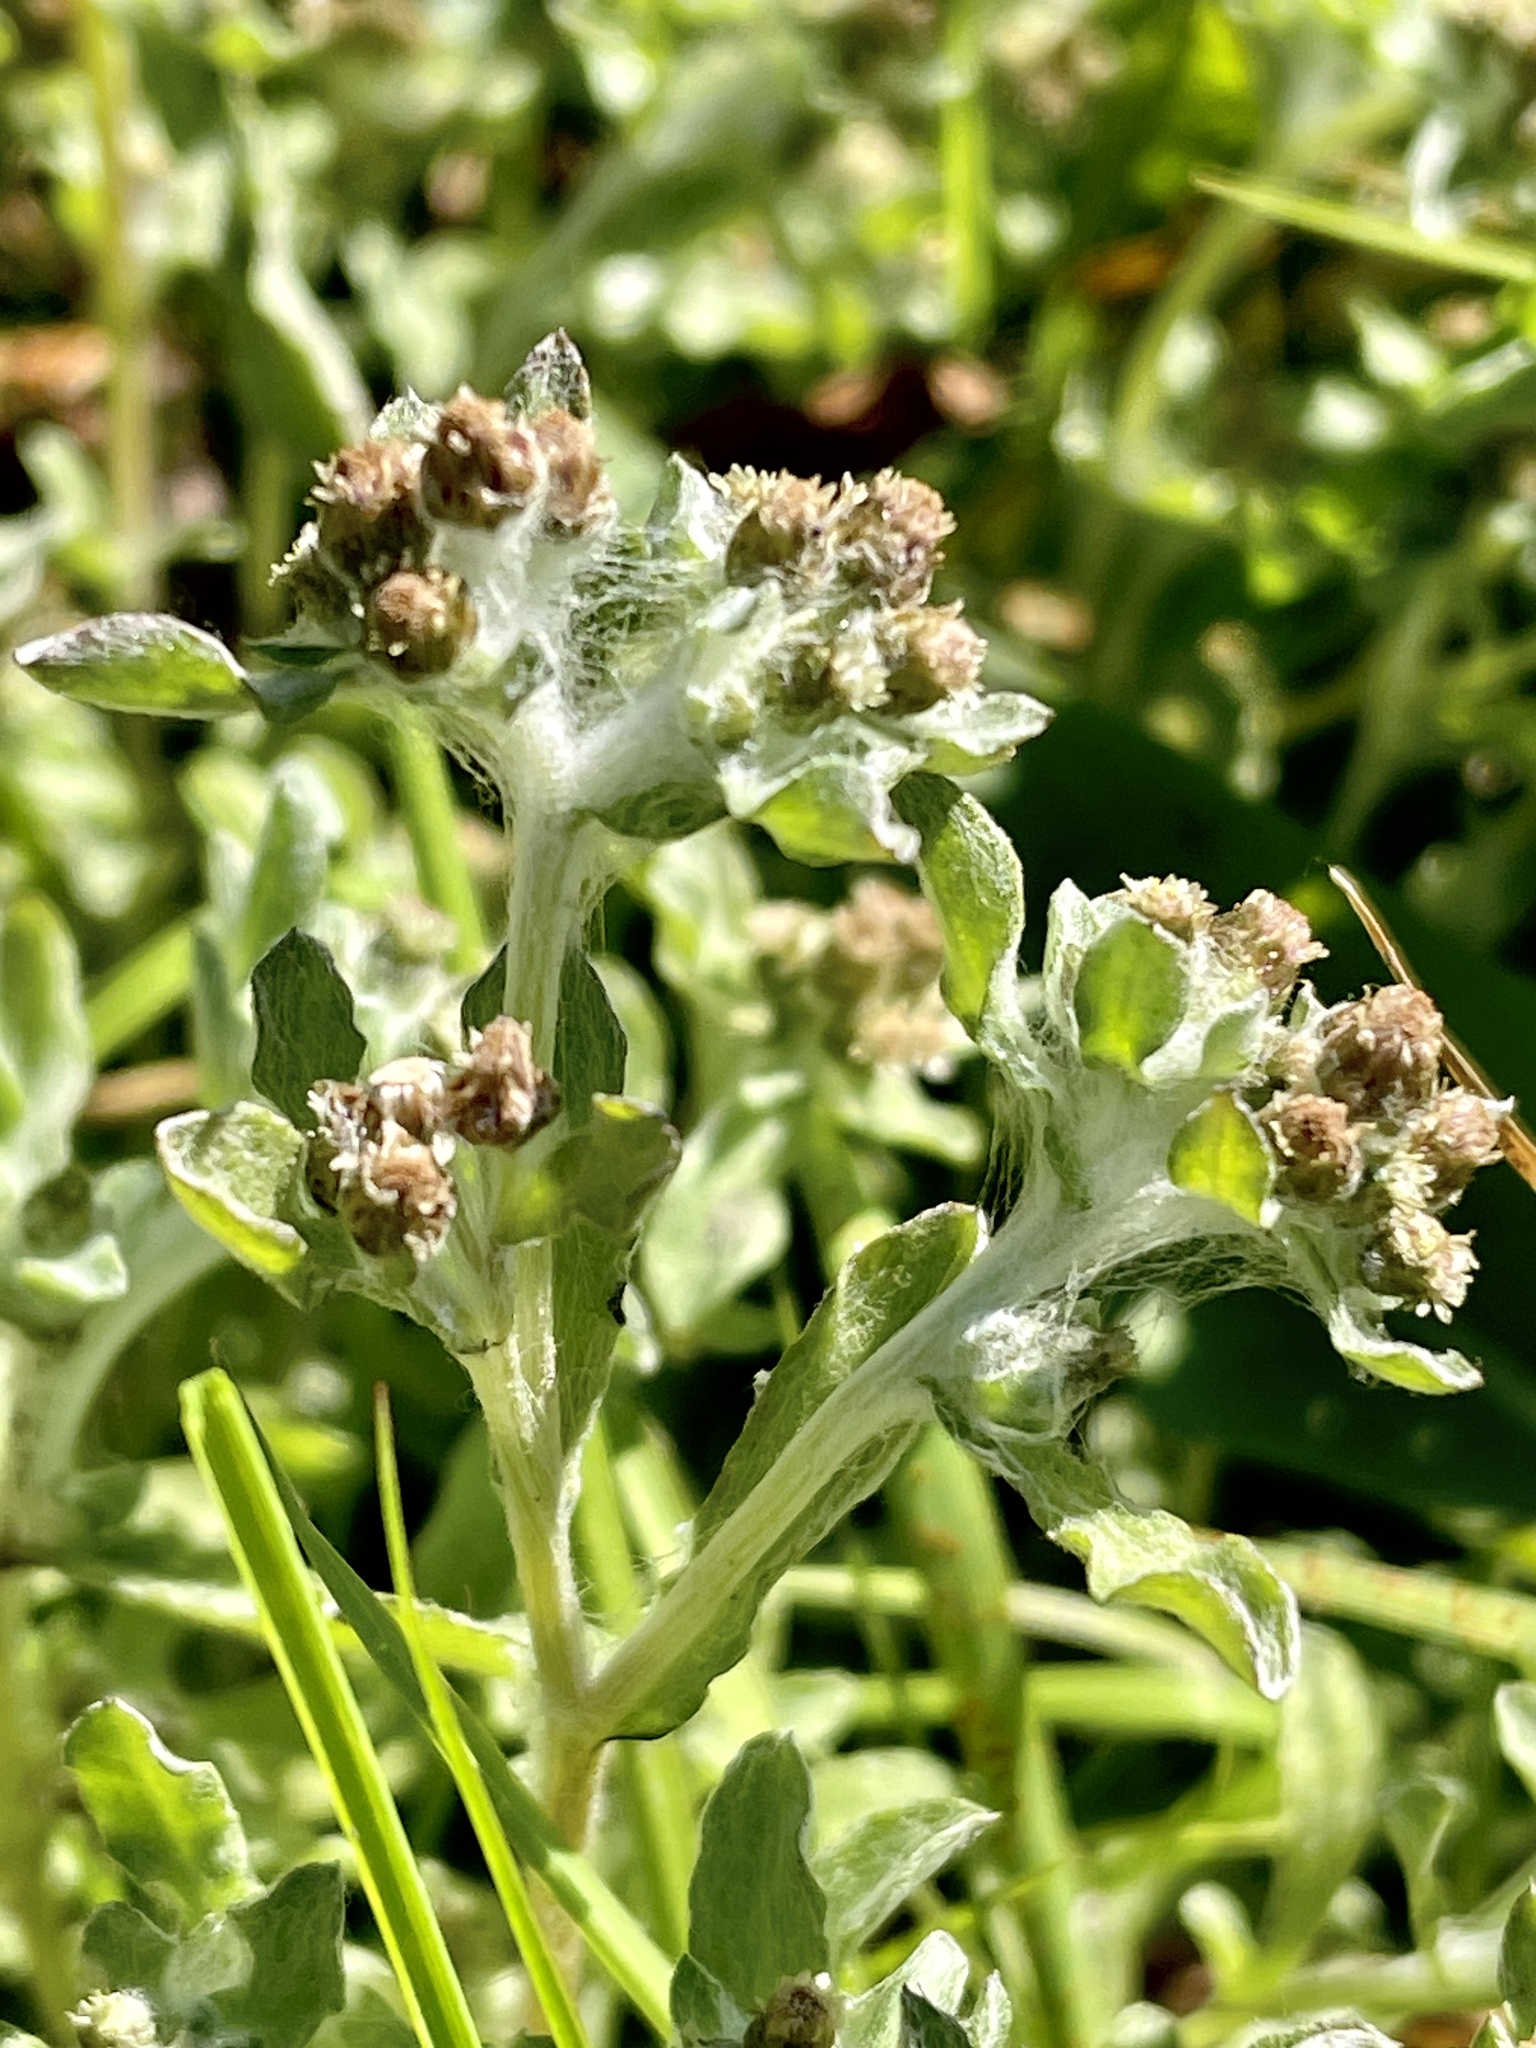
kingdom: Plantae
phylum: Tracheophyta
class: Magnoliopsida
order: Asterales
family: Asteraceae
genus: Gnaphalium
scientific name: Gnaphalium palustre
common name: Western marsh cudweed
